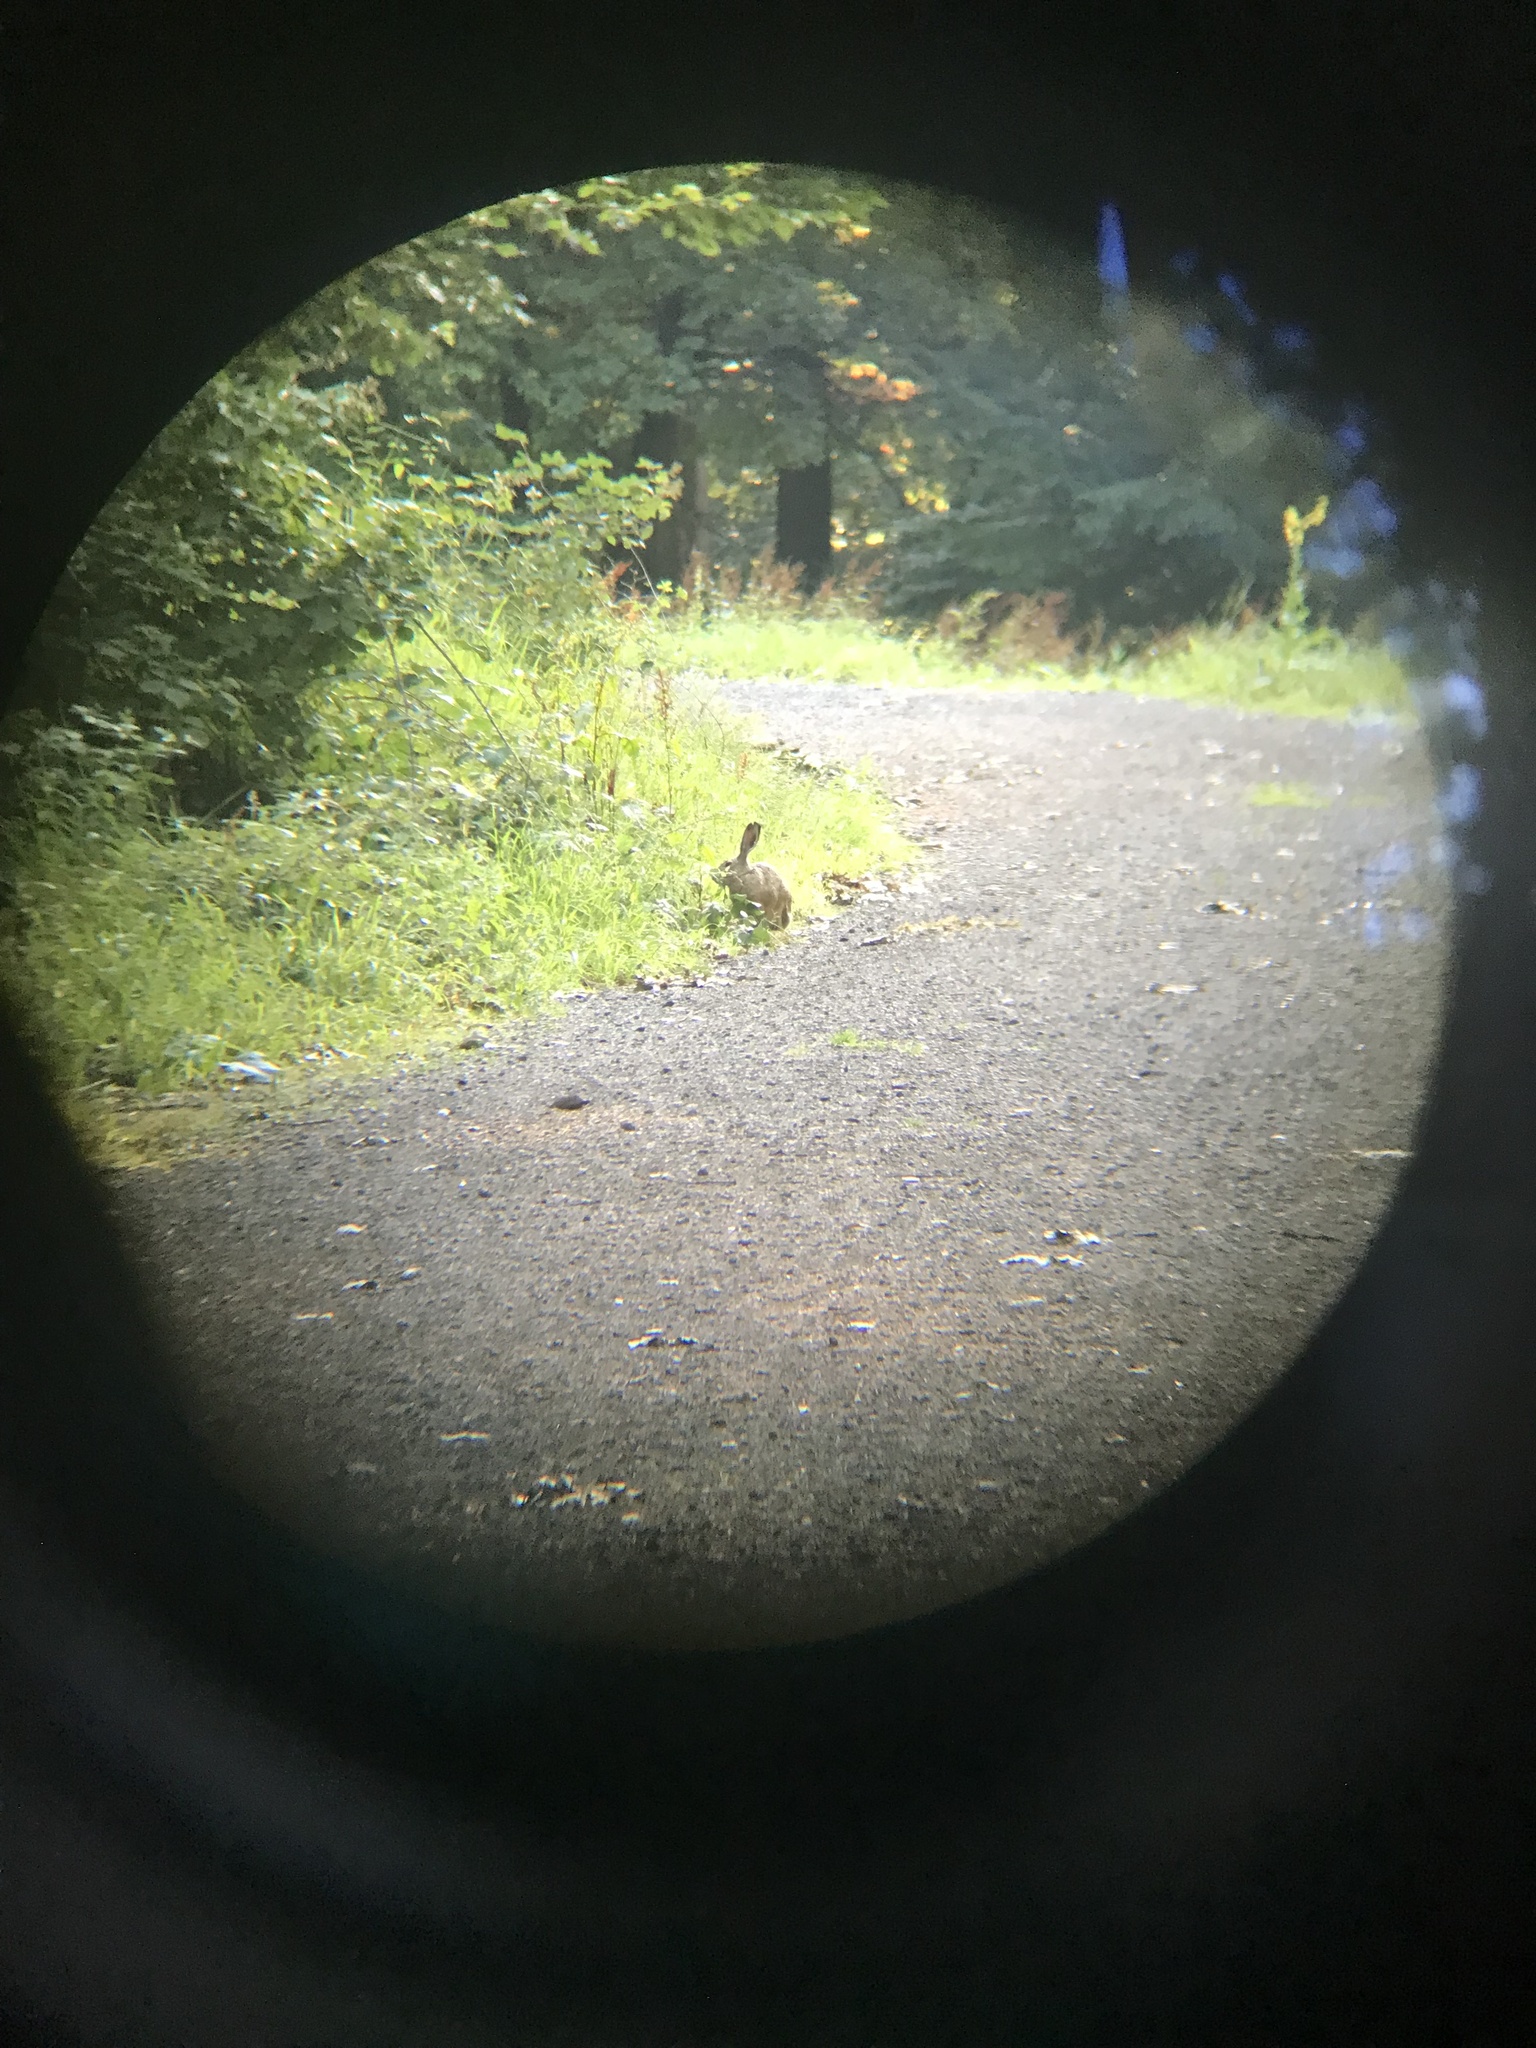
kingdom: Animalia
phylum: Chordata
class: Mammalia
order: Lagomorpha
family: Leporidae
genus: Lepus
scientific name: Lepus europaeus
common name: European hare
